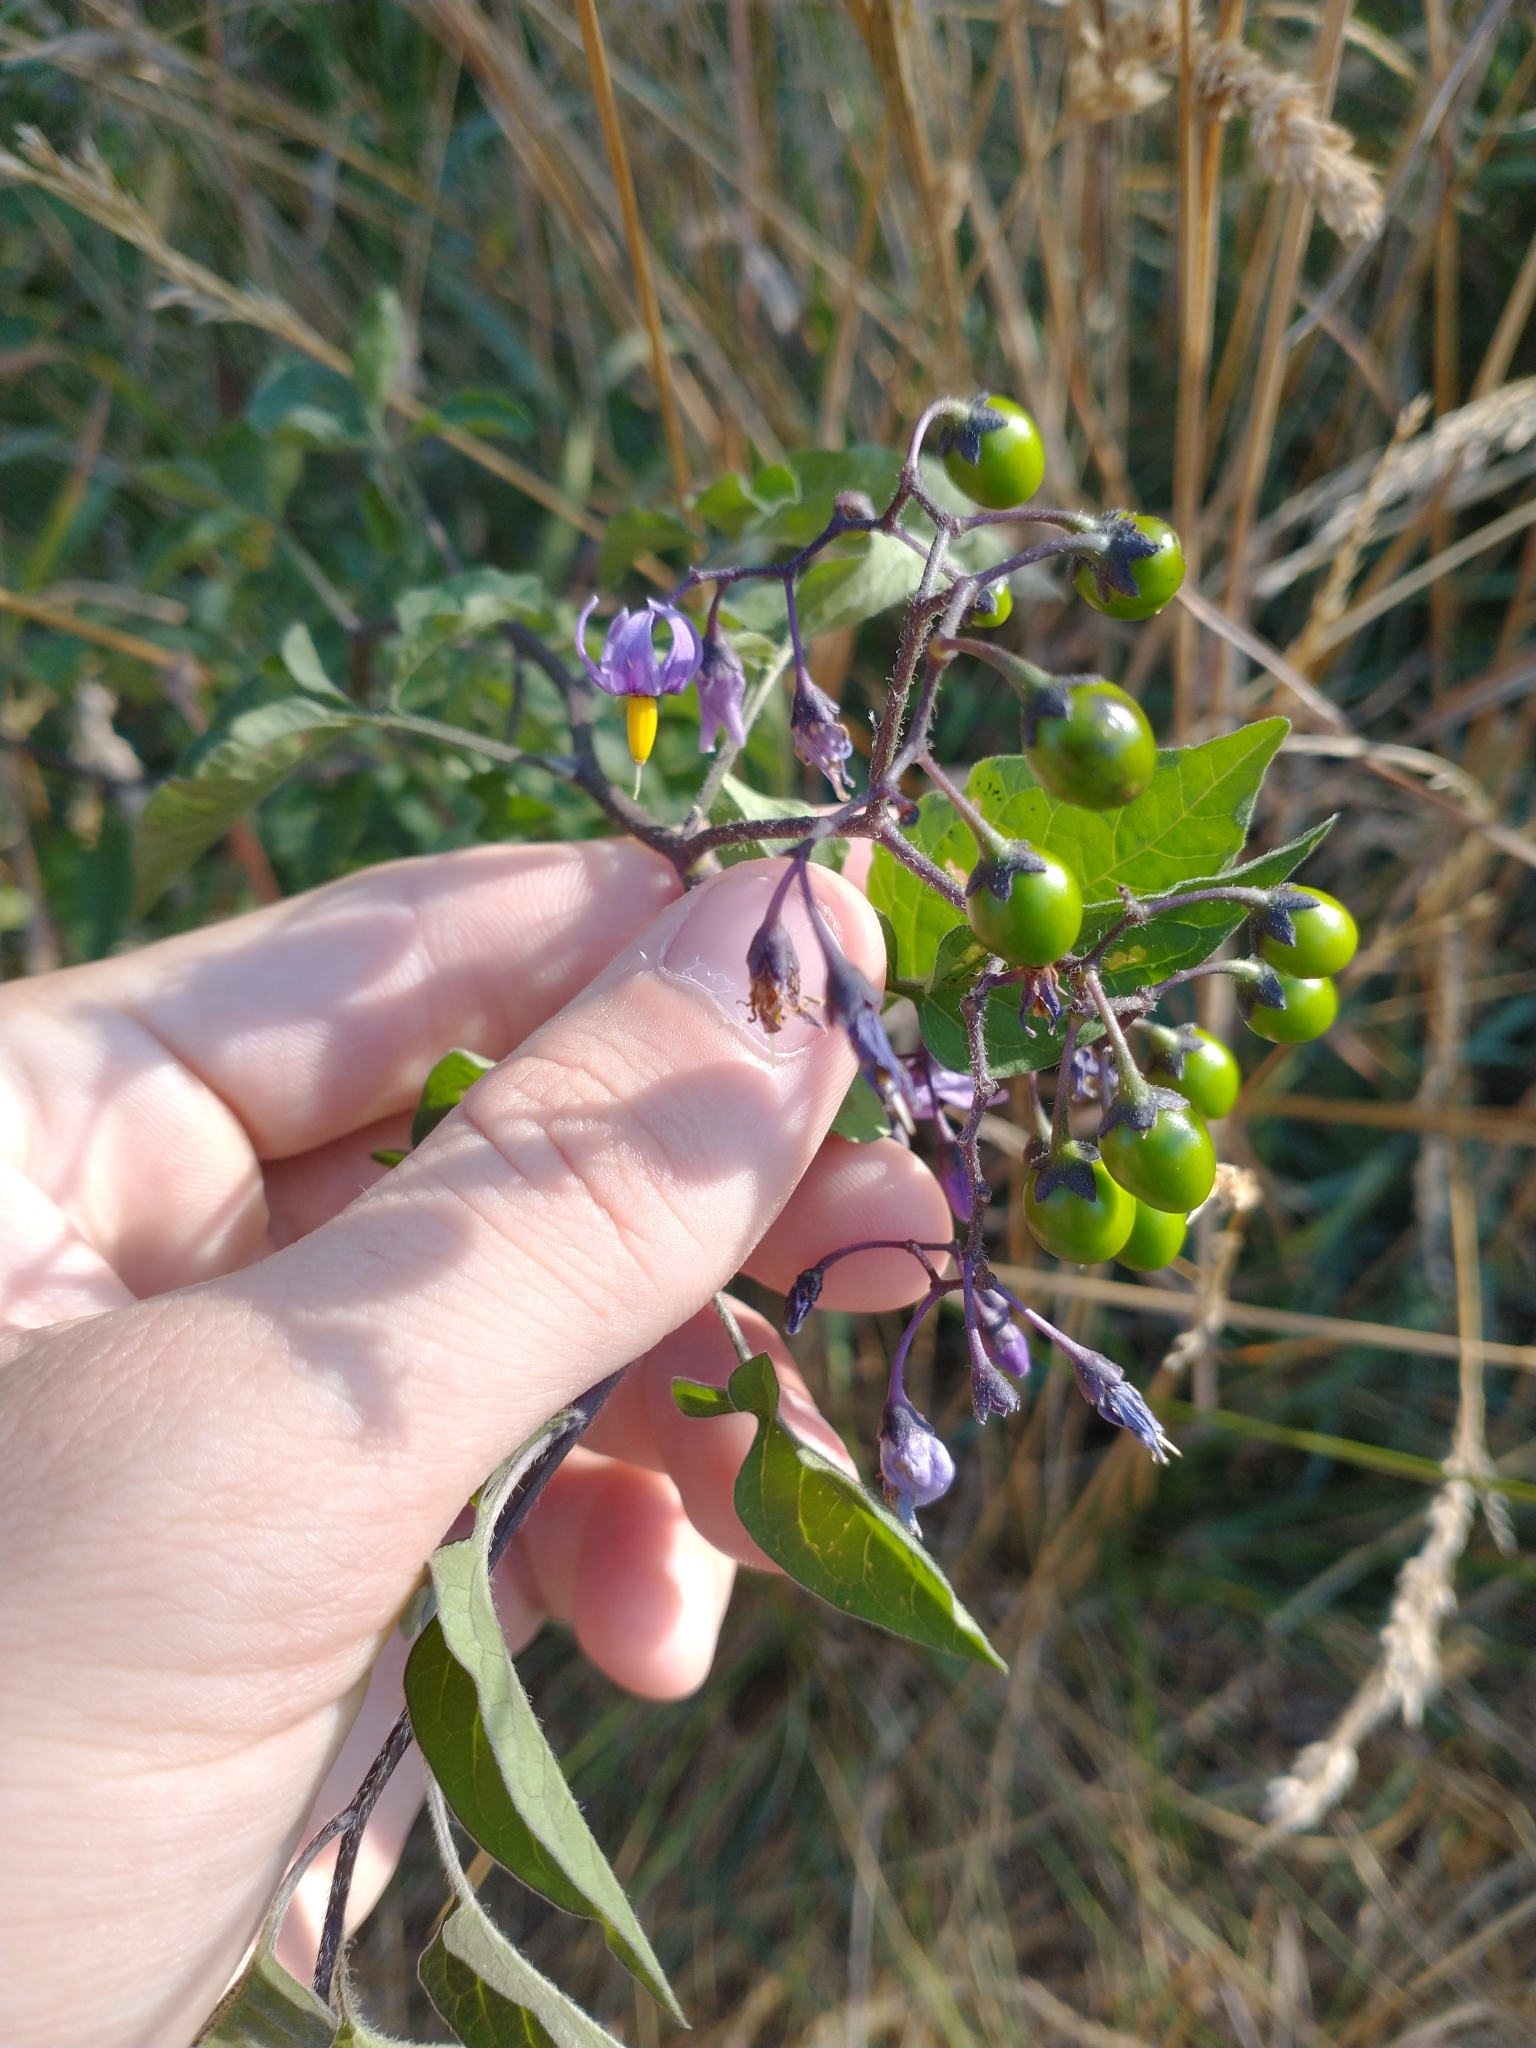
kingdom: Plantae
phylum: Tracheophyta
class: Magnoliopsida
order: Solanales
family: Solanaceae
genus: Solanum
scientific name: Solanum dulcamara
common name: Climbing nightshade
